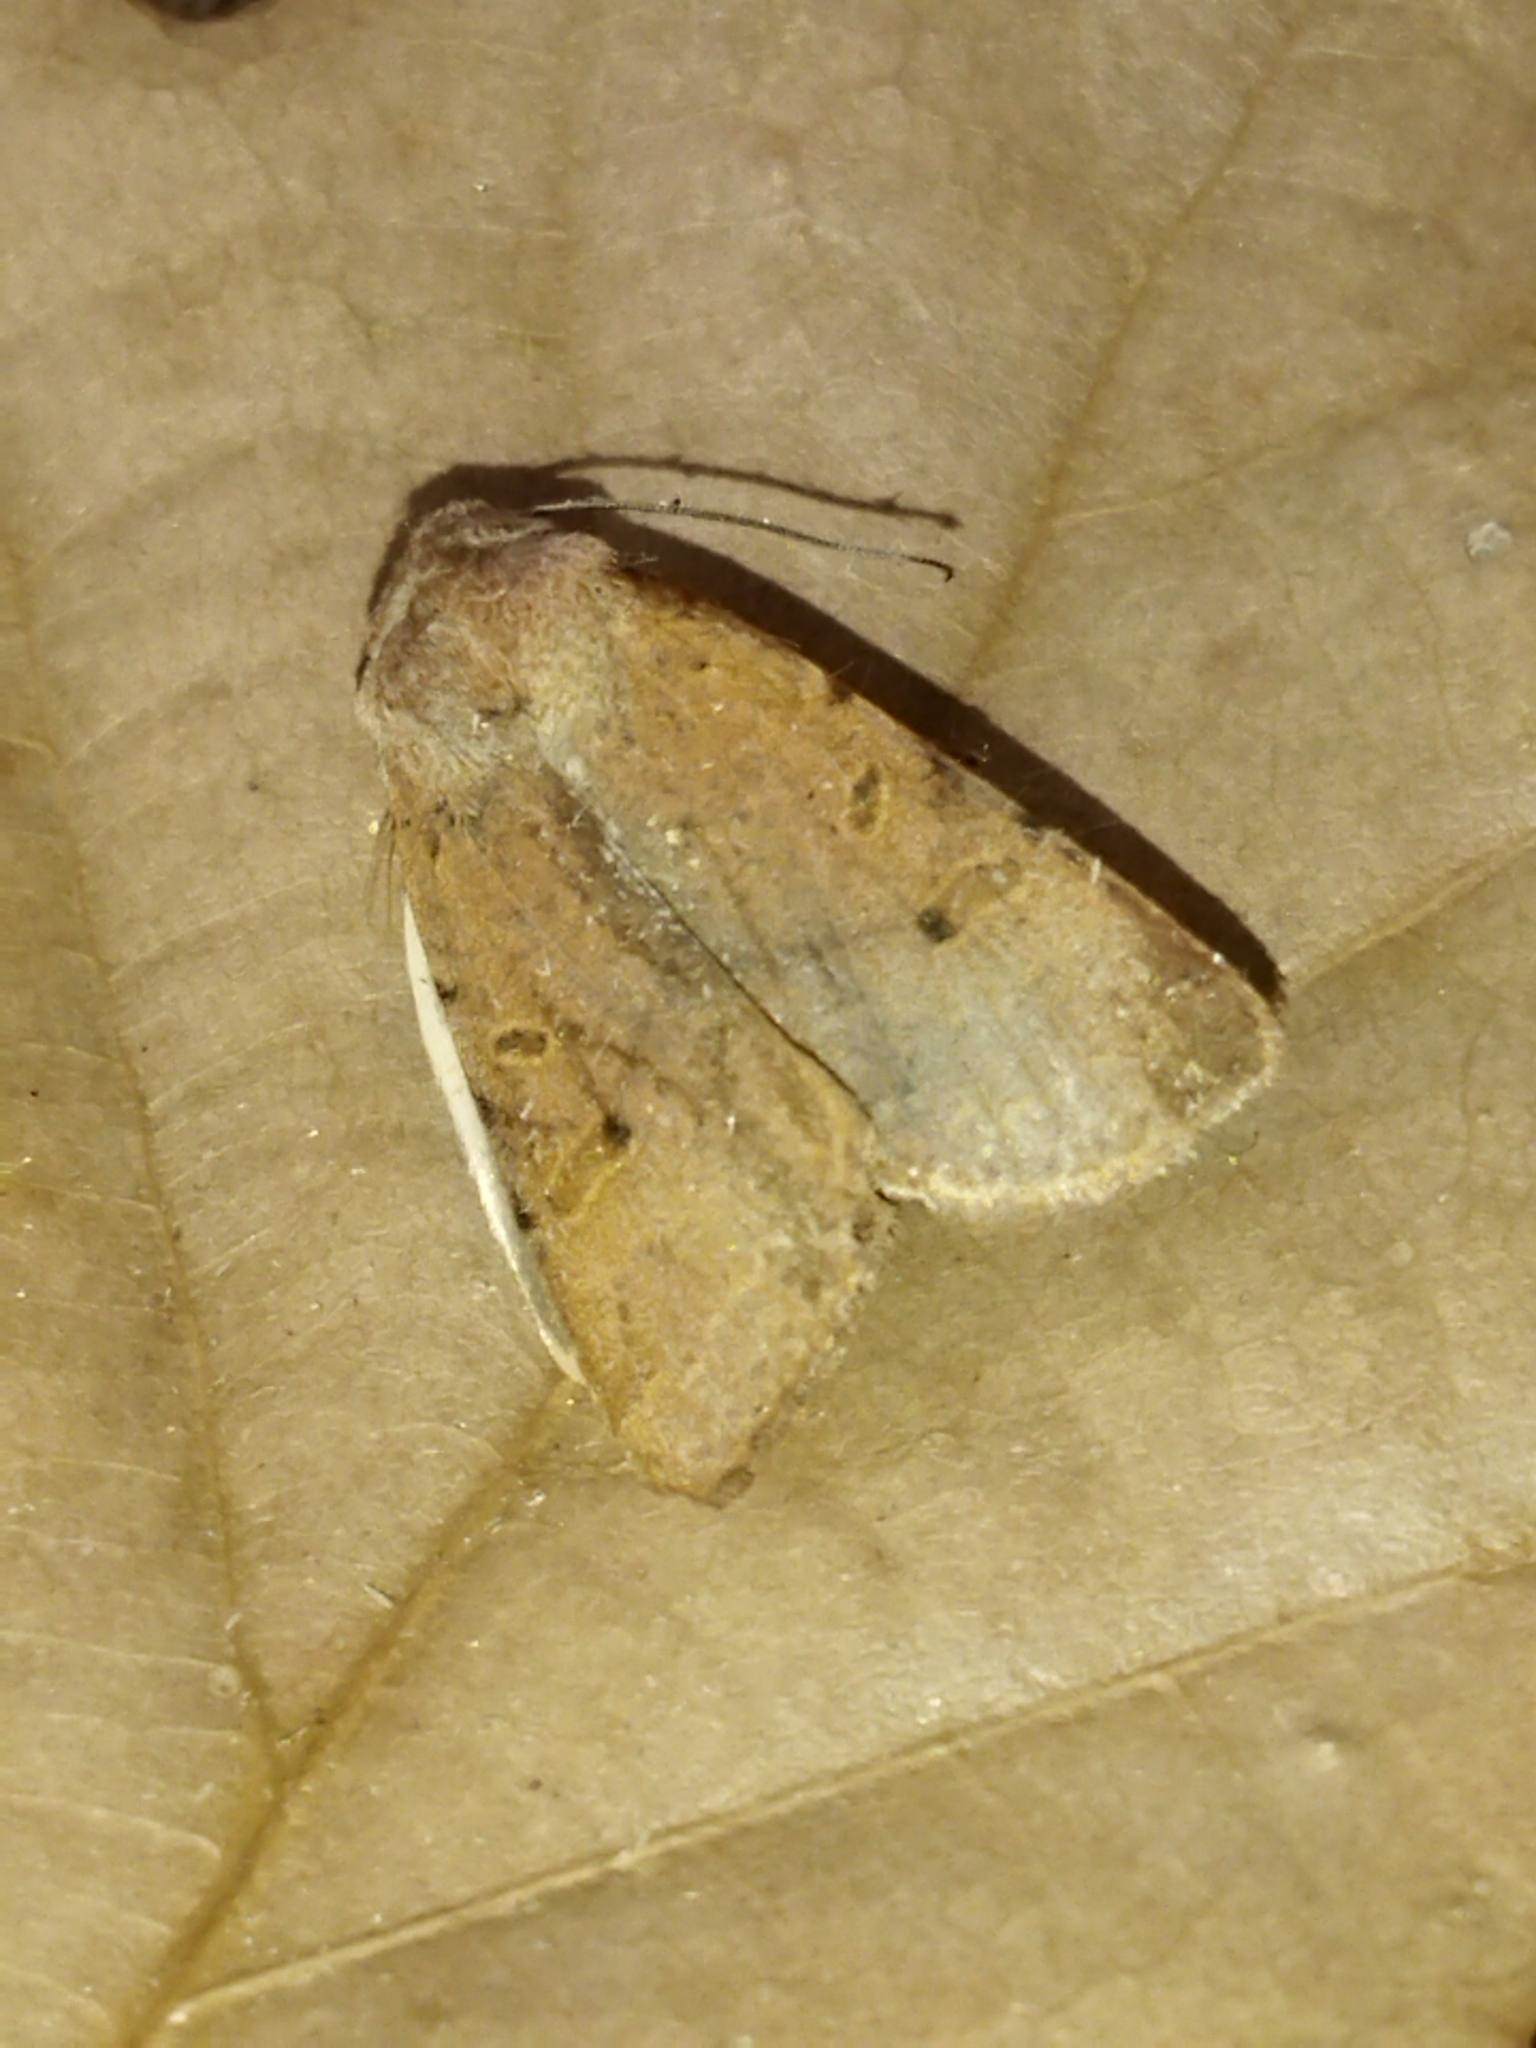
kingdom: Animalia
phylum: Arthropoda
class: Insecta
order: Lepidoptera
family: Noctuidae
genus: Agrochola
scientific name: Agrochola lychnidis
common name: Beaded chestnut
